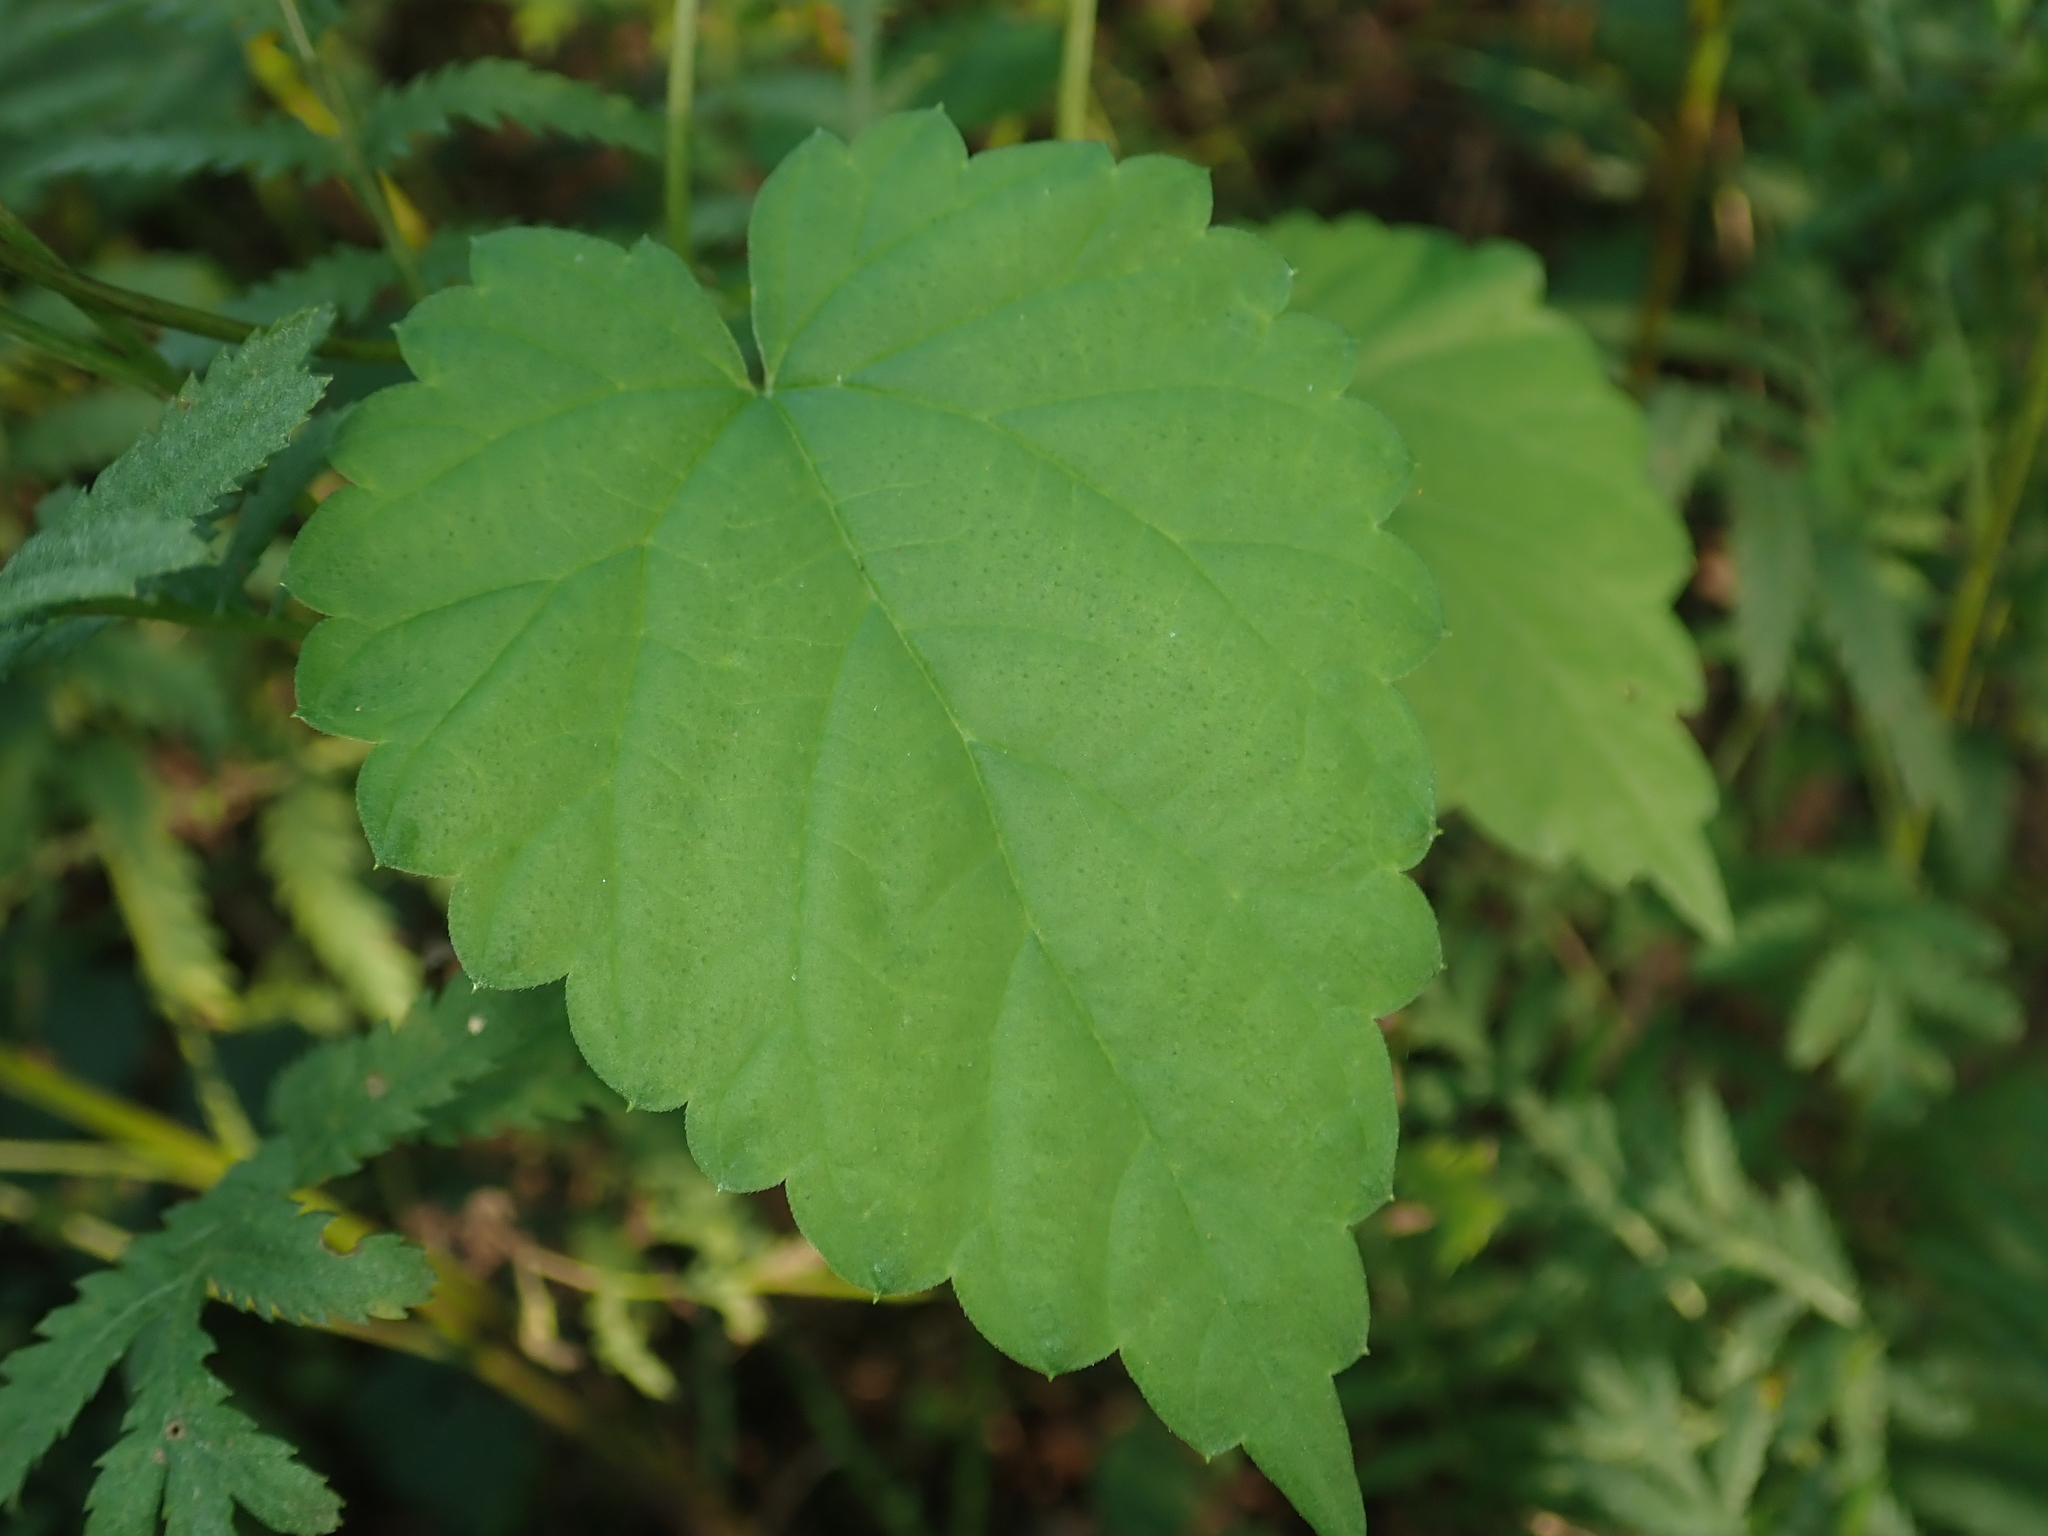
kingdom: Plantae
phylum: Tracheophyta
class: Magnoliopsida
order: Rosales
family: Cannabaceae
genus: Humulus
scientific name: Humulus lupulus
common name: Hop
